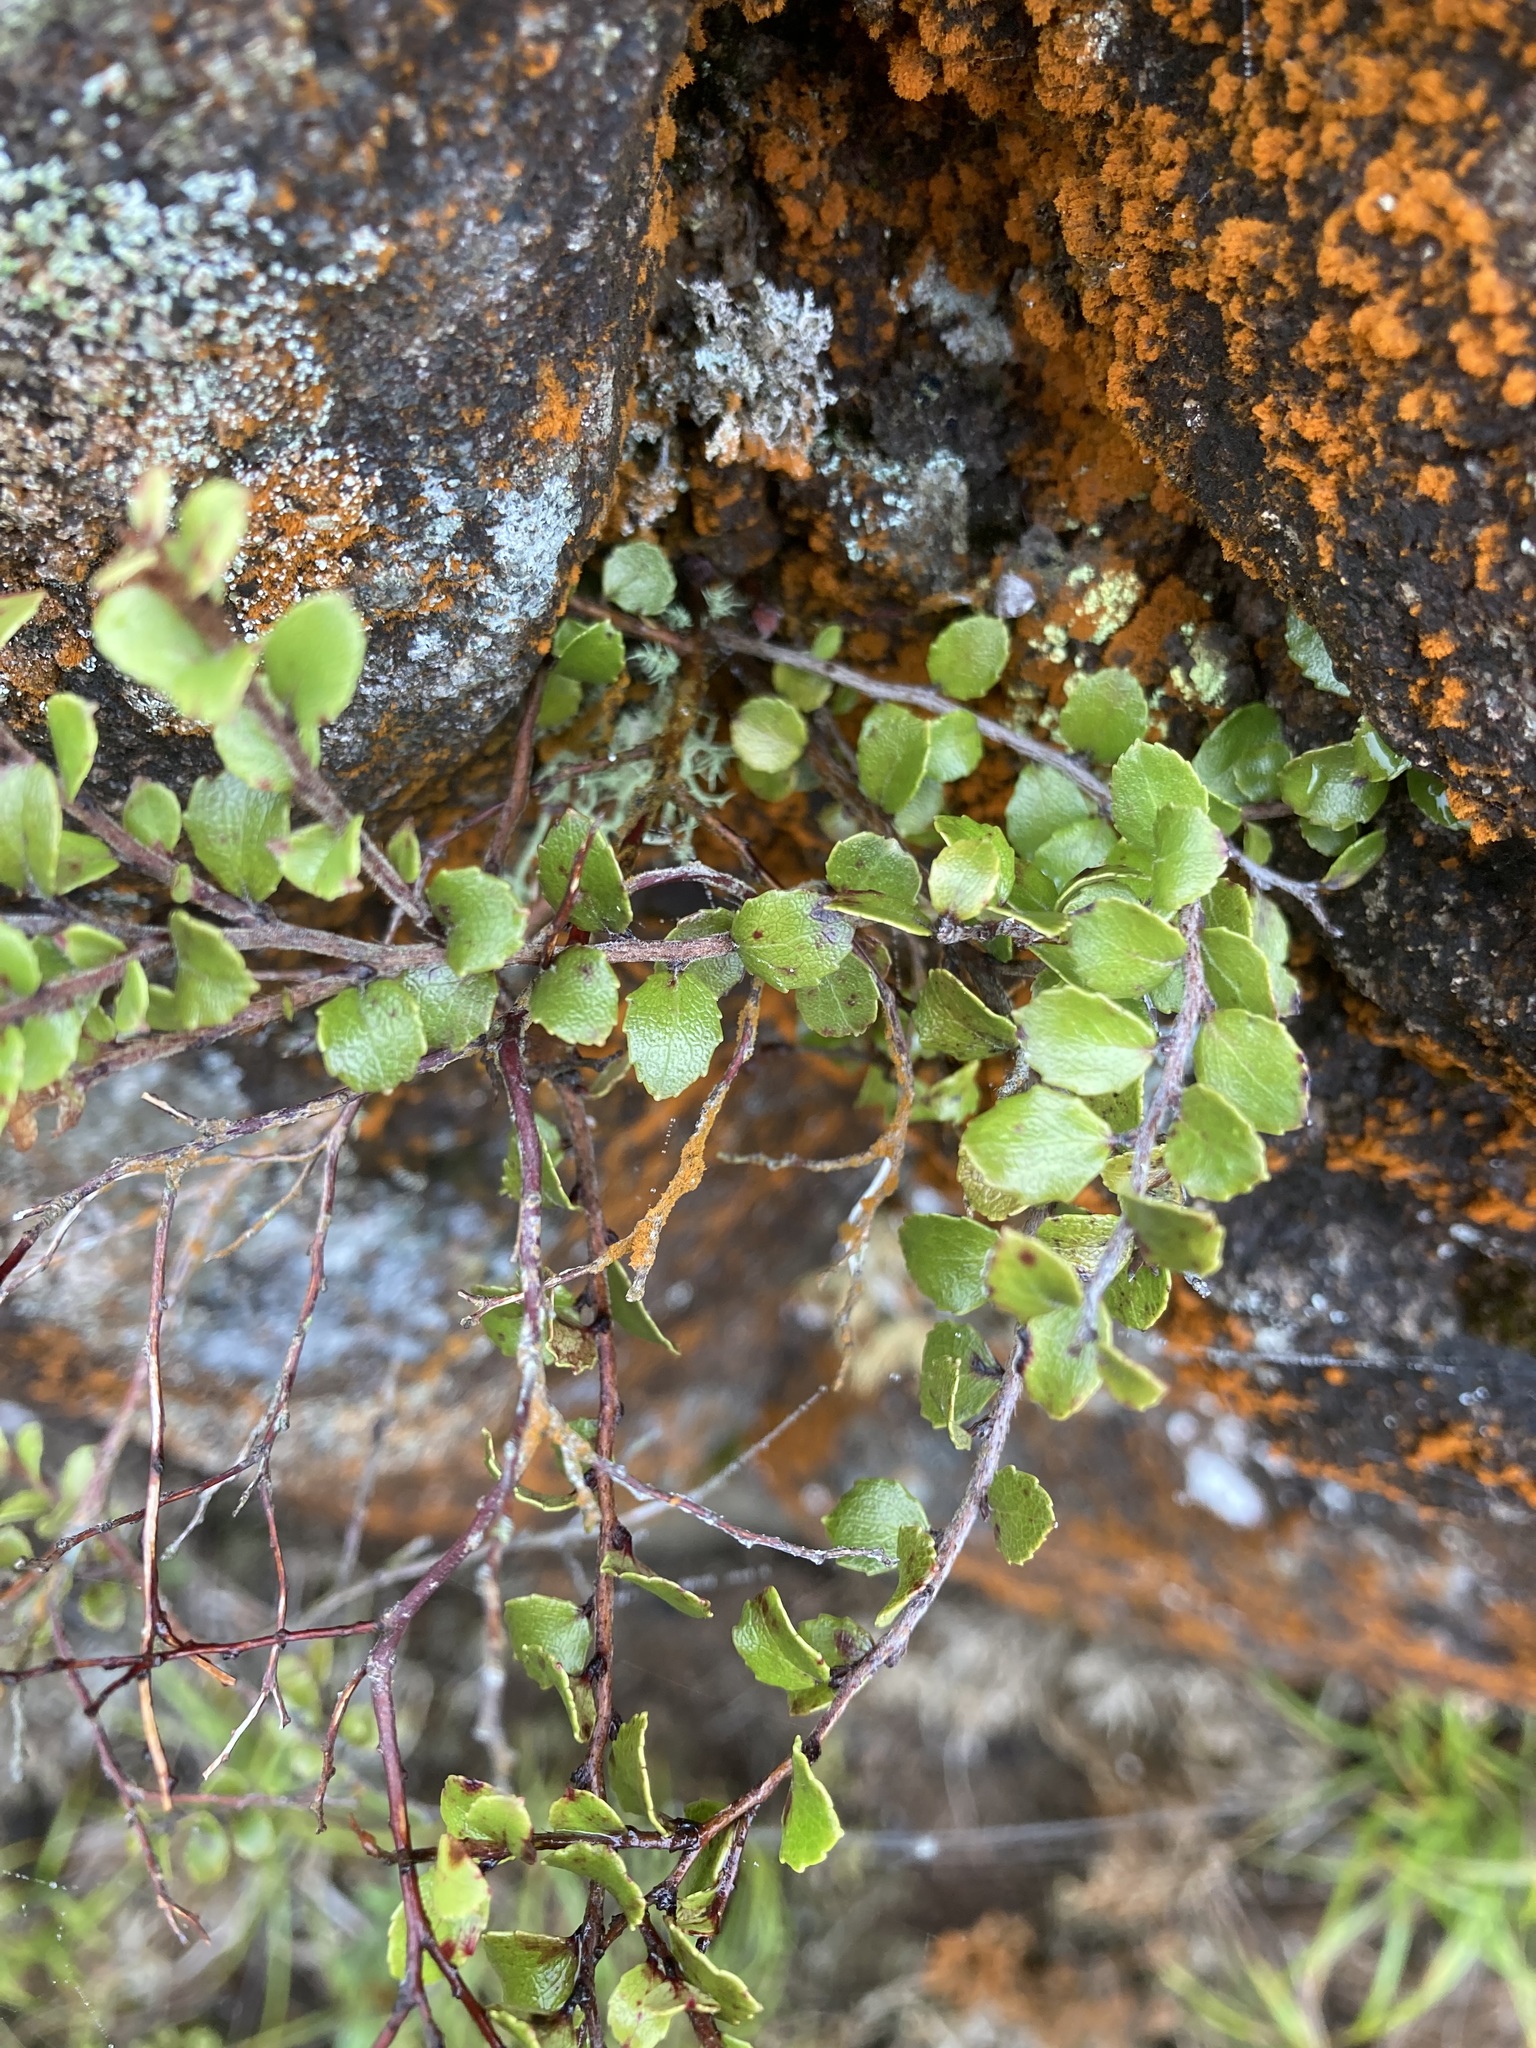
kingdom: Plantae
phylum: Tracheophyta
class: Magnoliopsida
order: Ericales
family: Ericaceae
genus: Gaultheria
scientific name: Gaultheria antipoda
